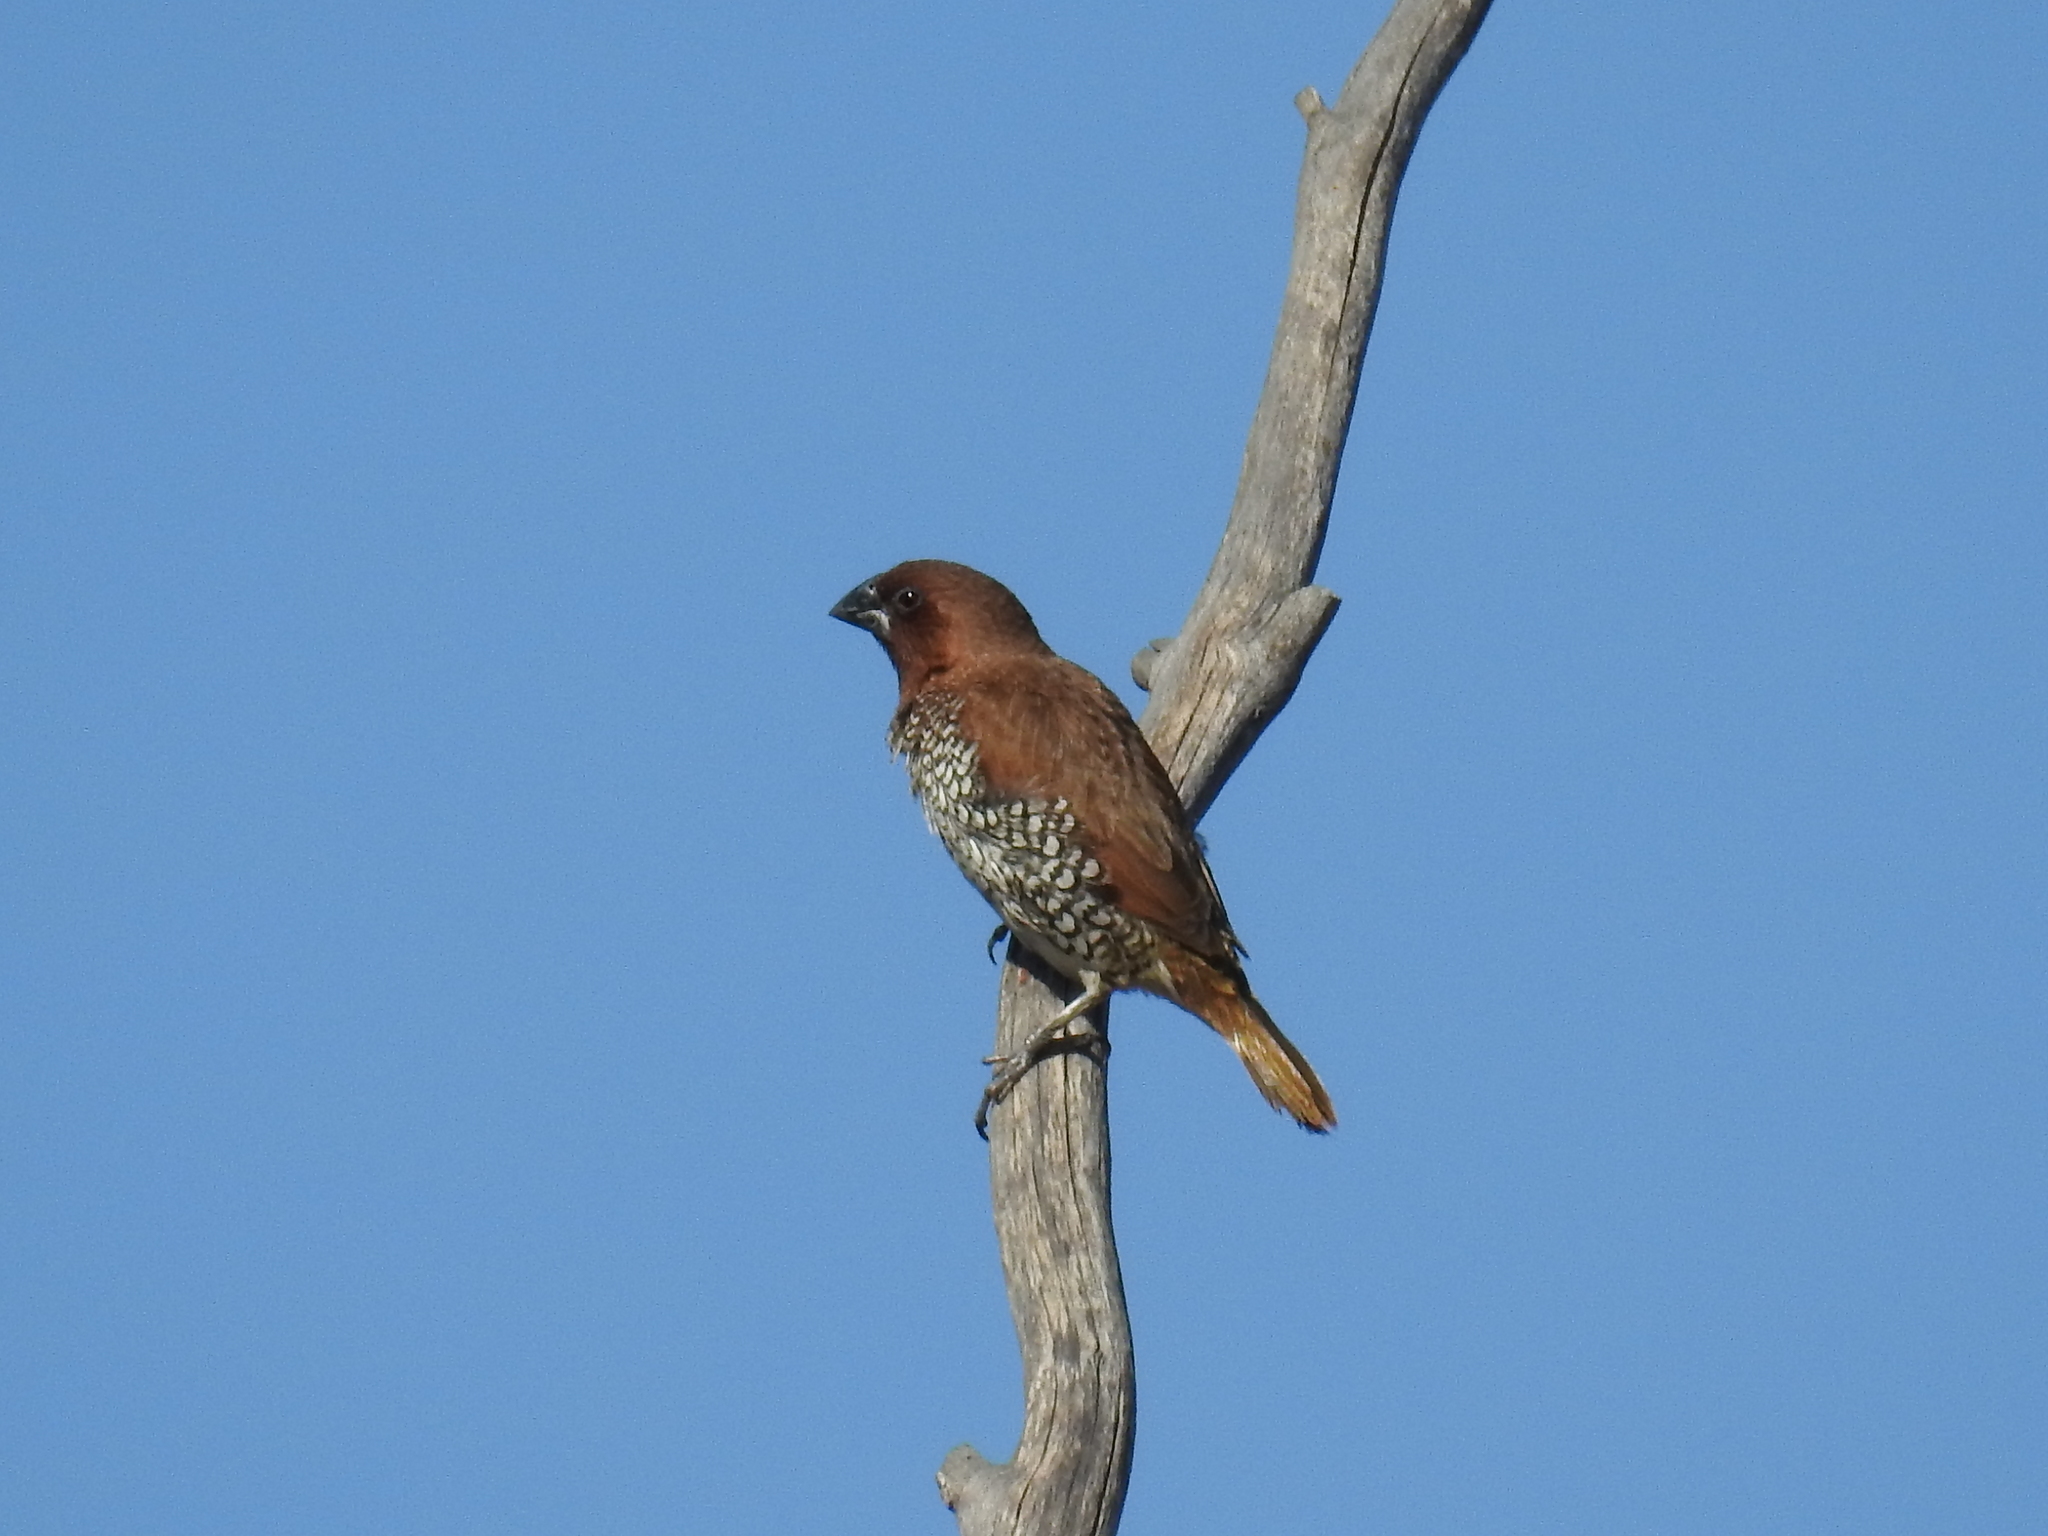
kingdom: Animalia
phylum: Chordata
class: Aves
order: Passeriformes
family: Estrildidae
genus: Lonchura
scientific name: Lonchura punctulata
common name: Scaly-breasted munia
